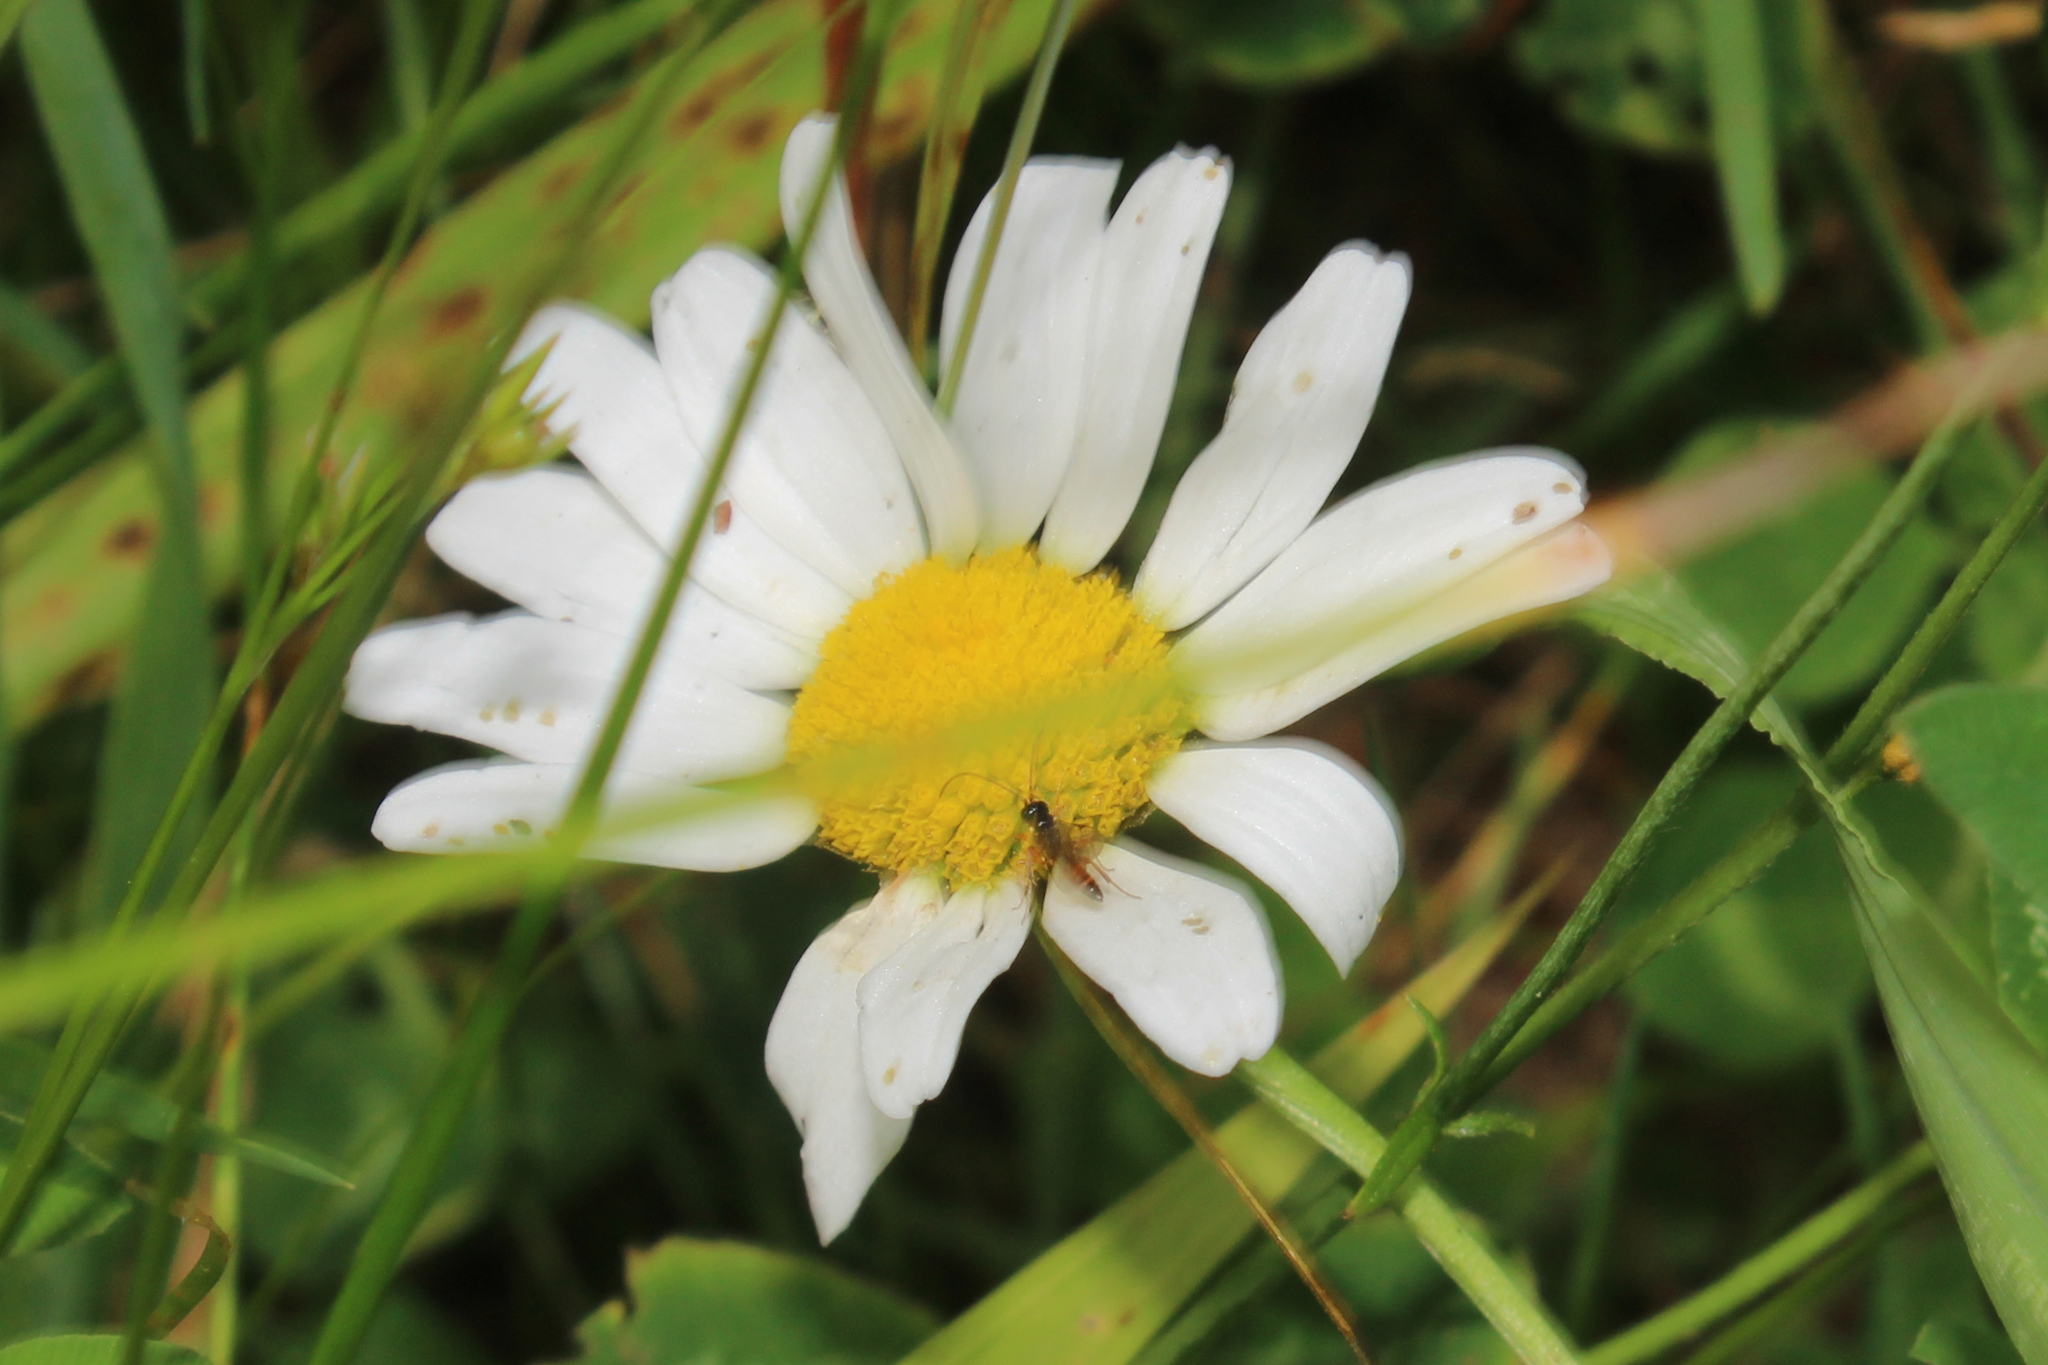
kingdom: Plantae
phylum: Tracheophyta
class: Magnoliopsida
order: Asterales
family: Asteraceae
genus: Leucanthemum
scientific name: Leucanthemum vulgare
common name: Oxeye daisy
